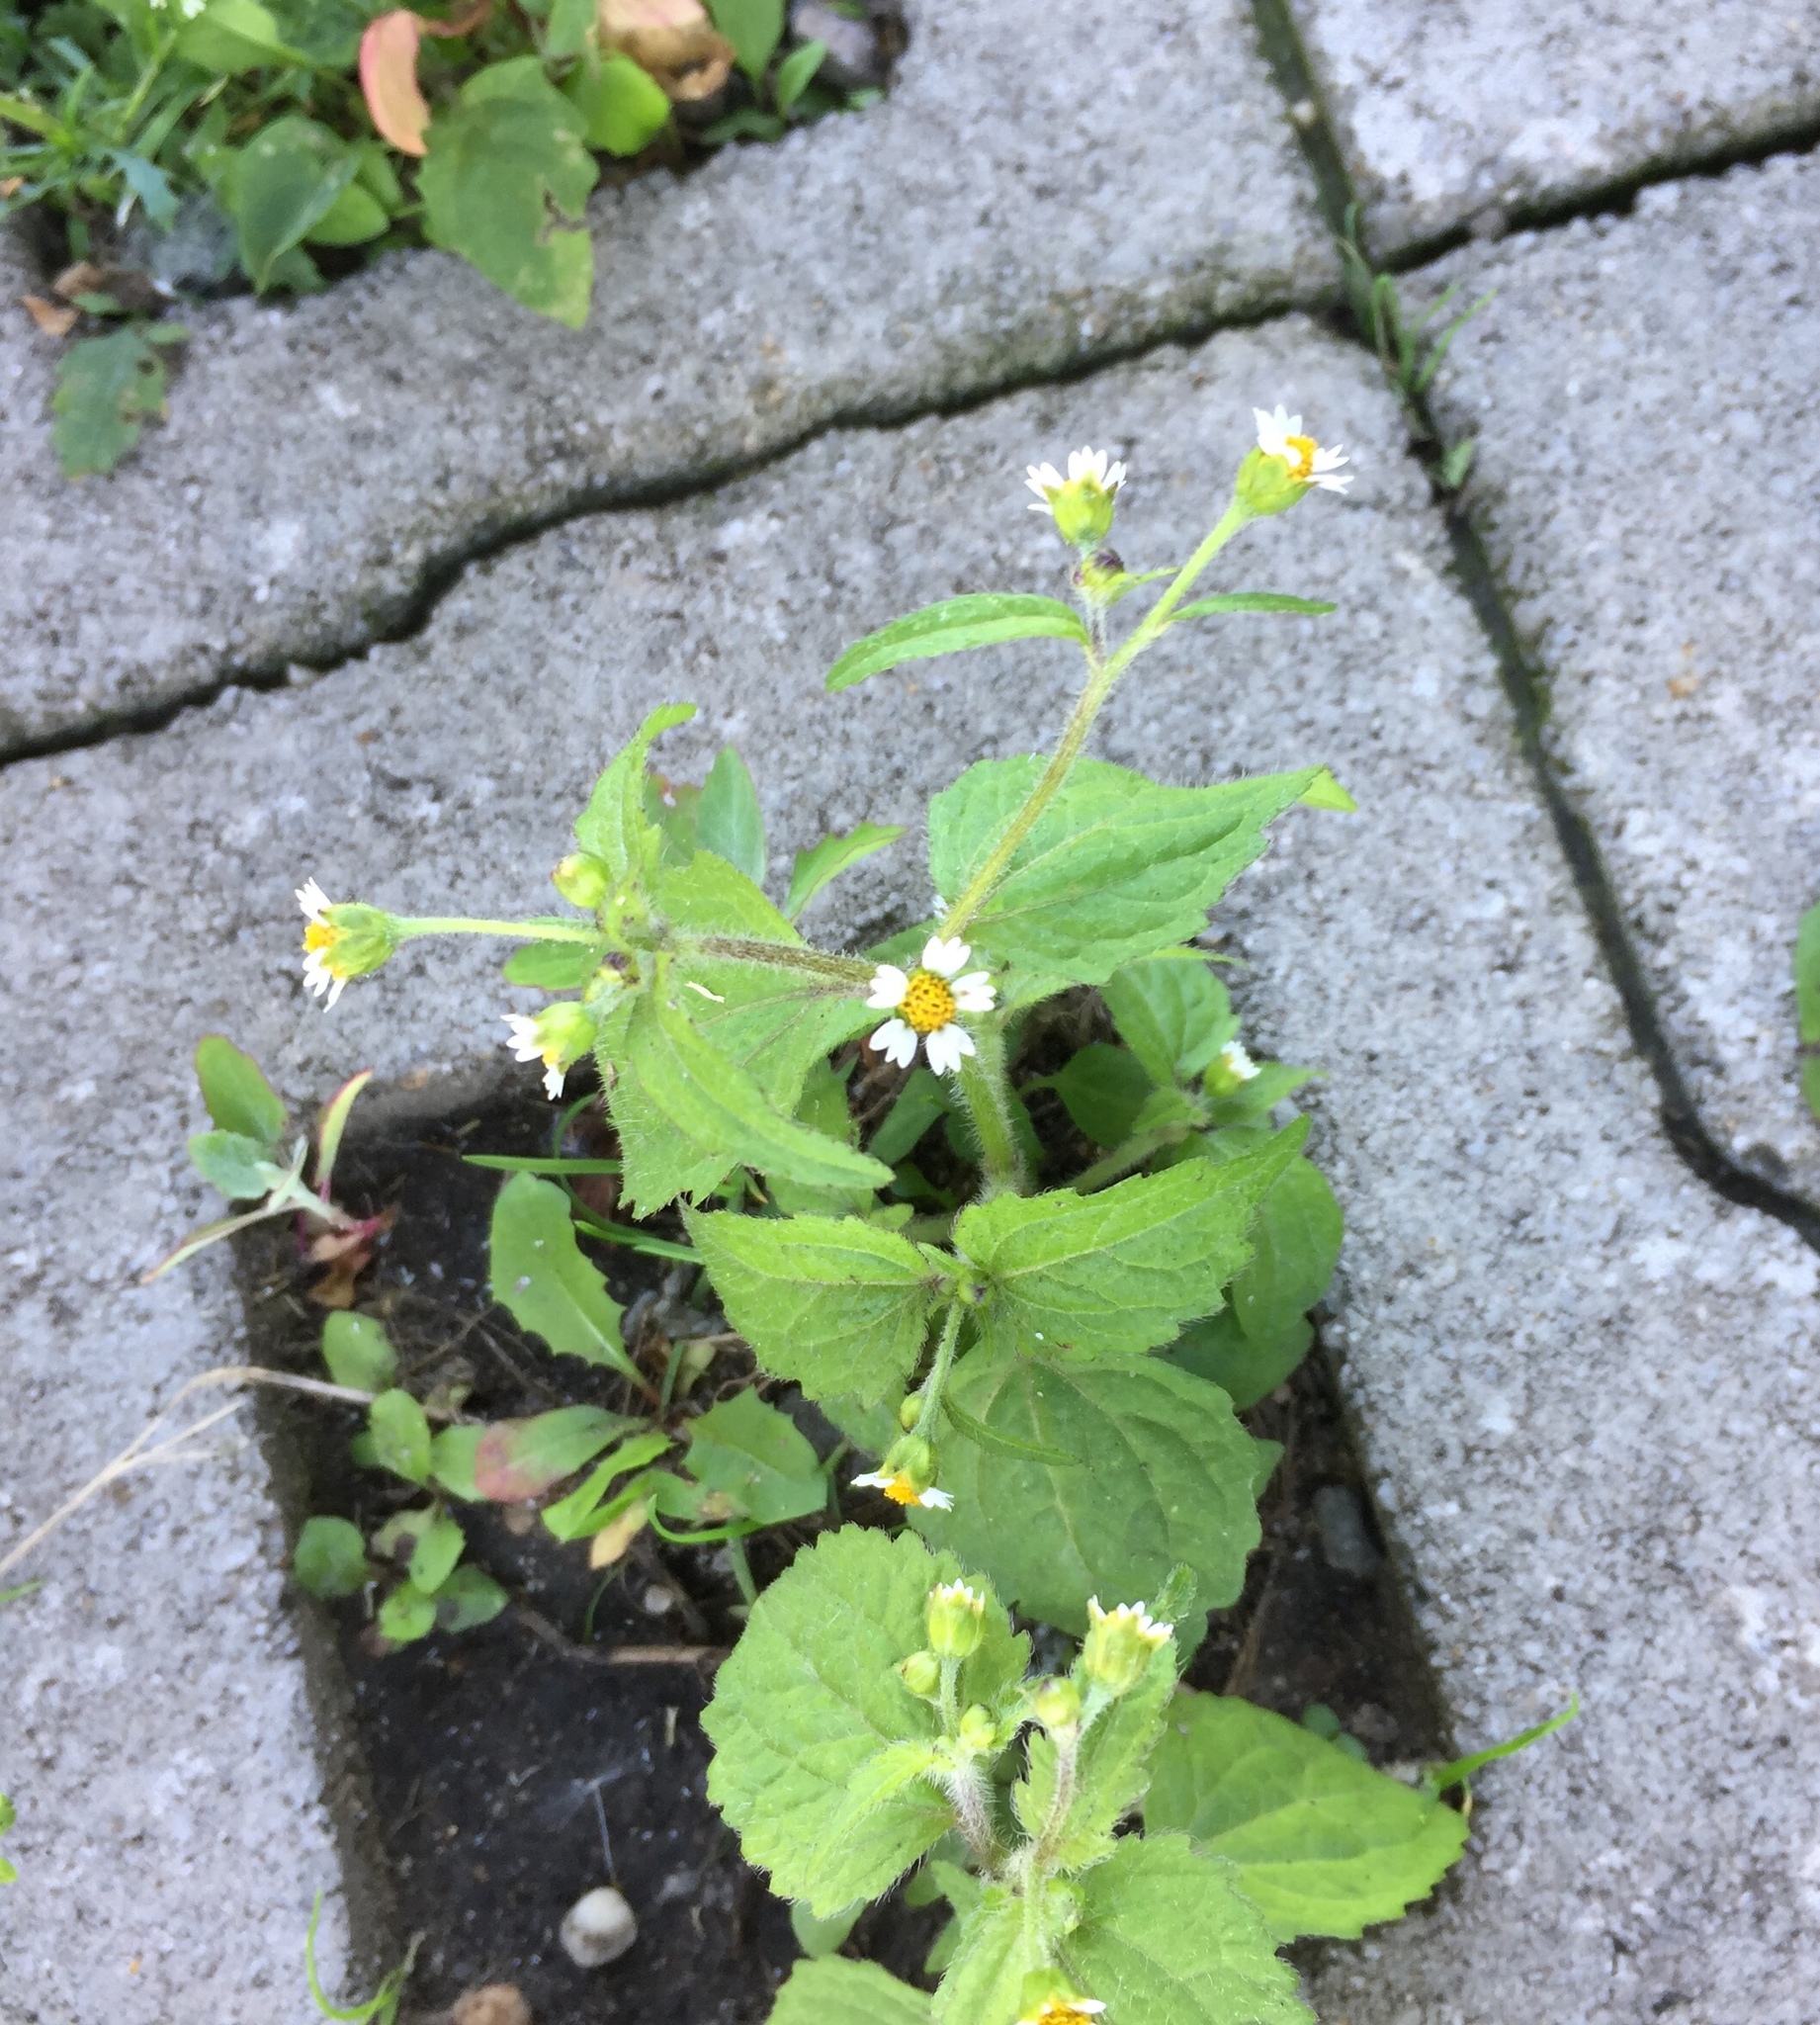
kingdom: Plantae
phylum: Tracheophyta
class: Magnoliopsida
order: Asterales
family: Asteraceae
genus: Galinsoga
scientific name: Galinsoga quadriradiata
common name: Shaggy soldier
